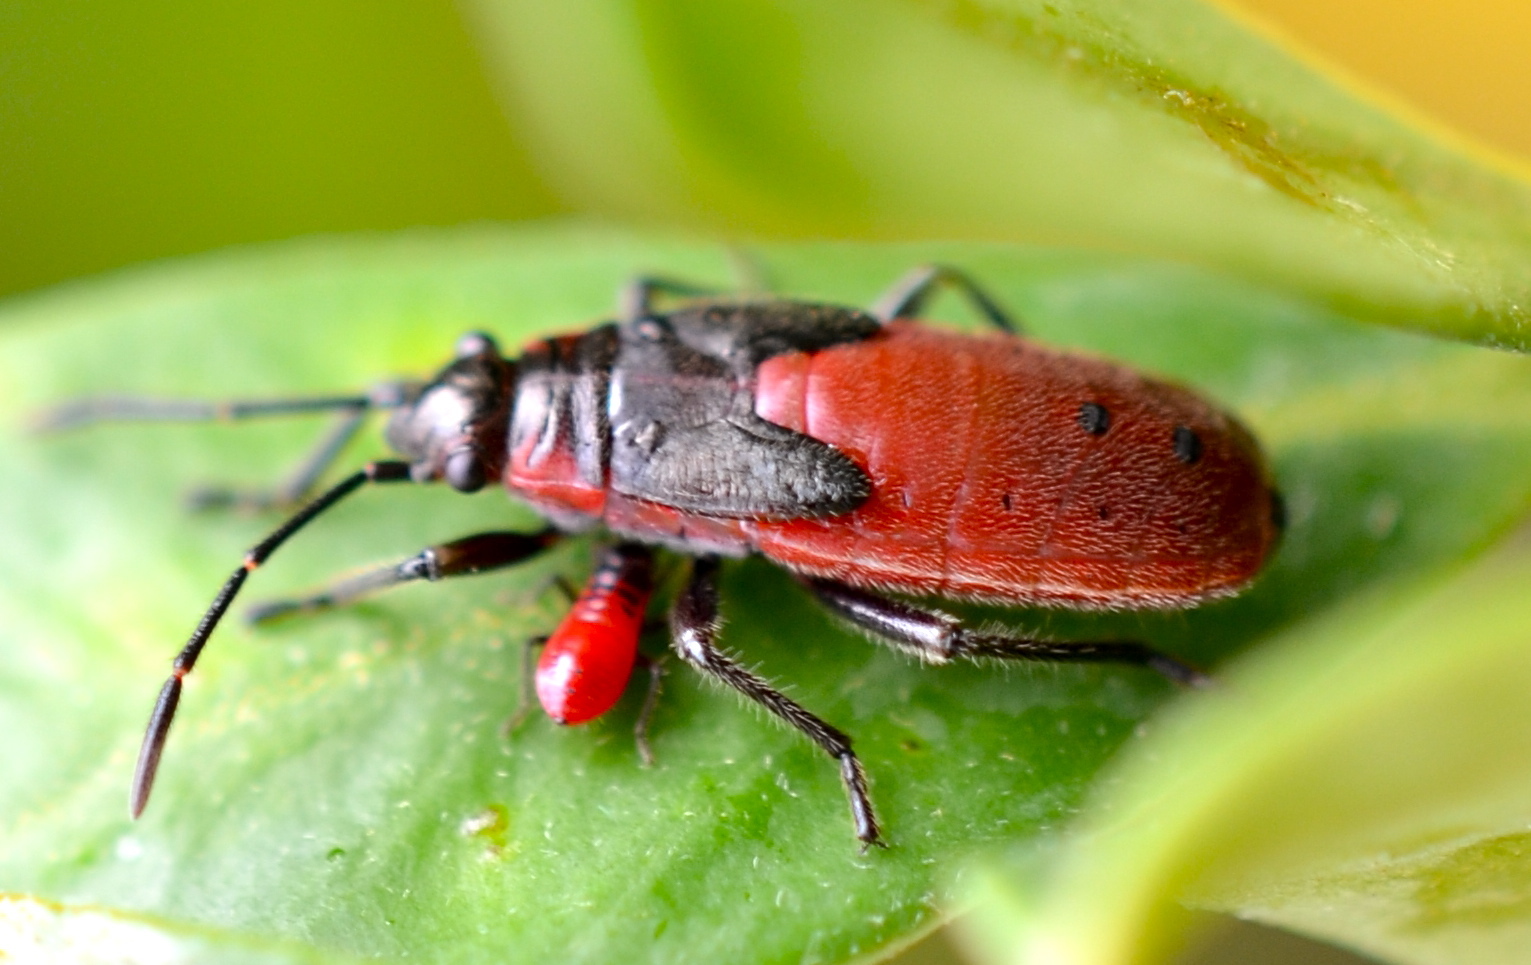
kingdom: Animalia
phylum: Arthropoda
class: Insecta
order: Hemiptera
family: Lygaeidae
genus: Arocatus
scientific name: Arocatus rusticus
